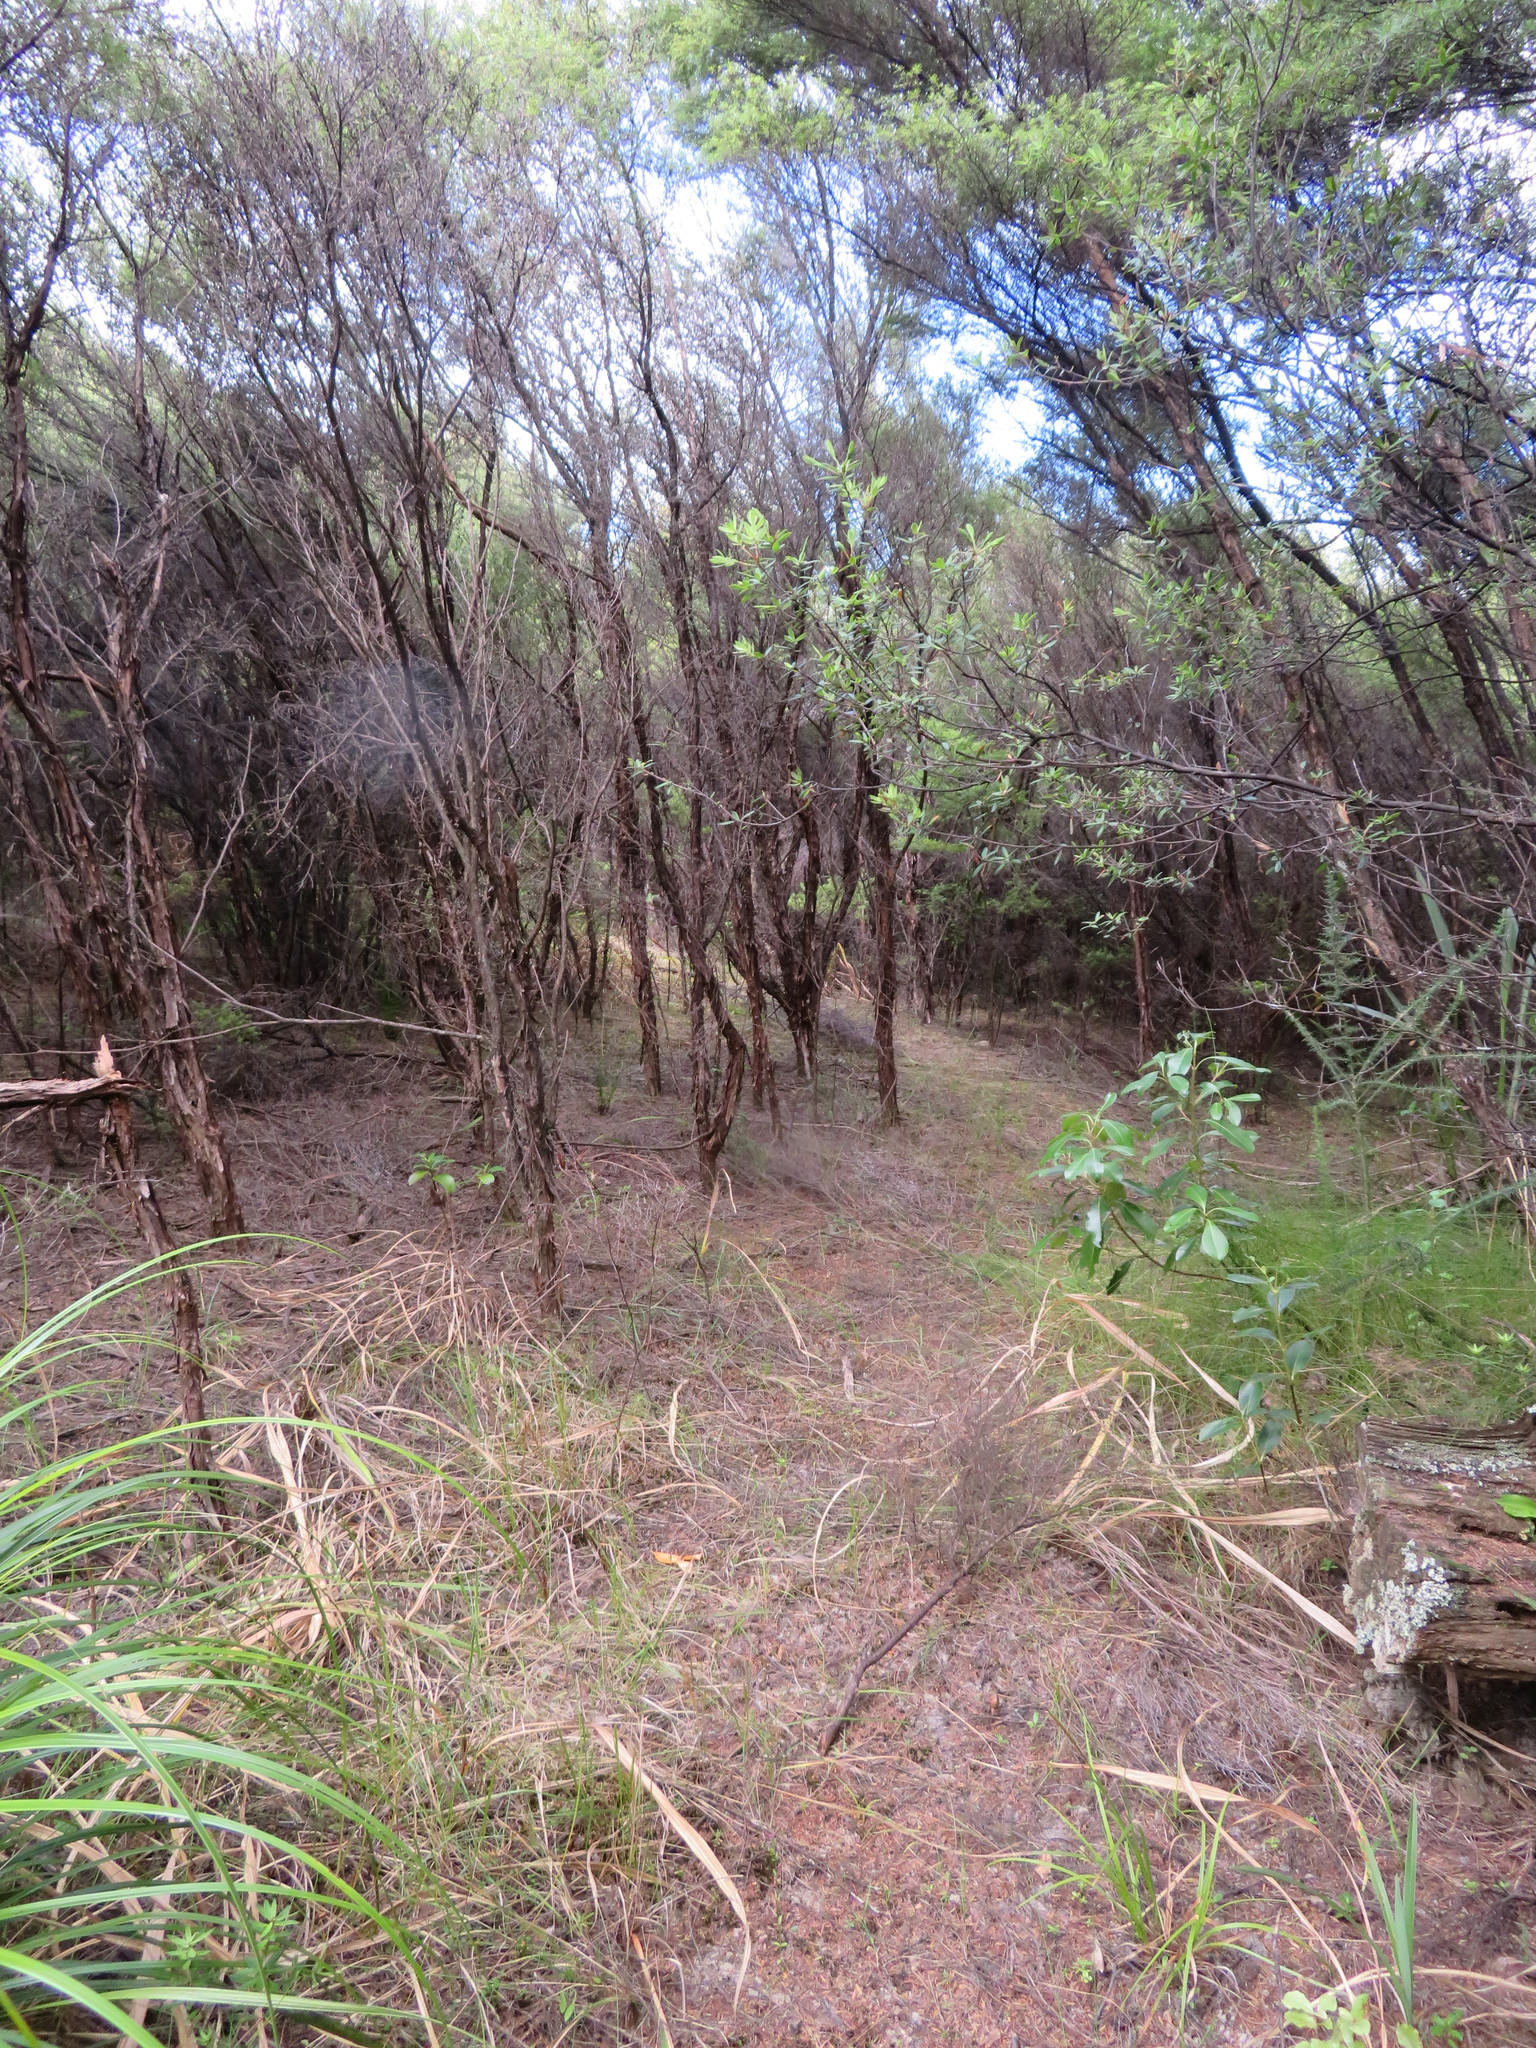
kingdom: Plantae
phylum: Tracheophyta
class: Magnoliopsida
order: Gentianales
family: Rubiaceae
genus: Coprosma
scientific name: Coprosma lucida
